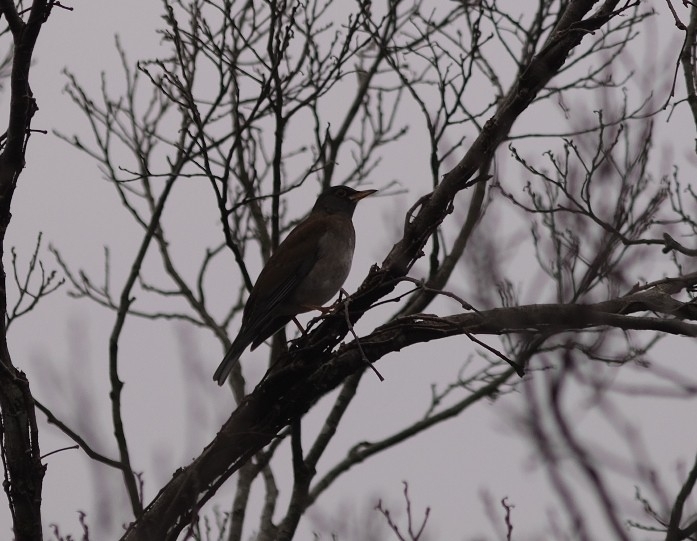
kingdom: Animalia
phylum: Chordata
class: Aves
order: Passeriformes
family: Turdidae
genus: Turdus
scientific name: Turdus pallidus
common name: Pale thrush
